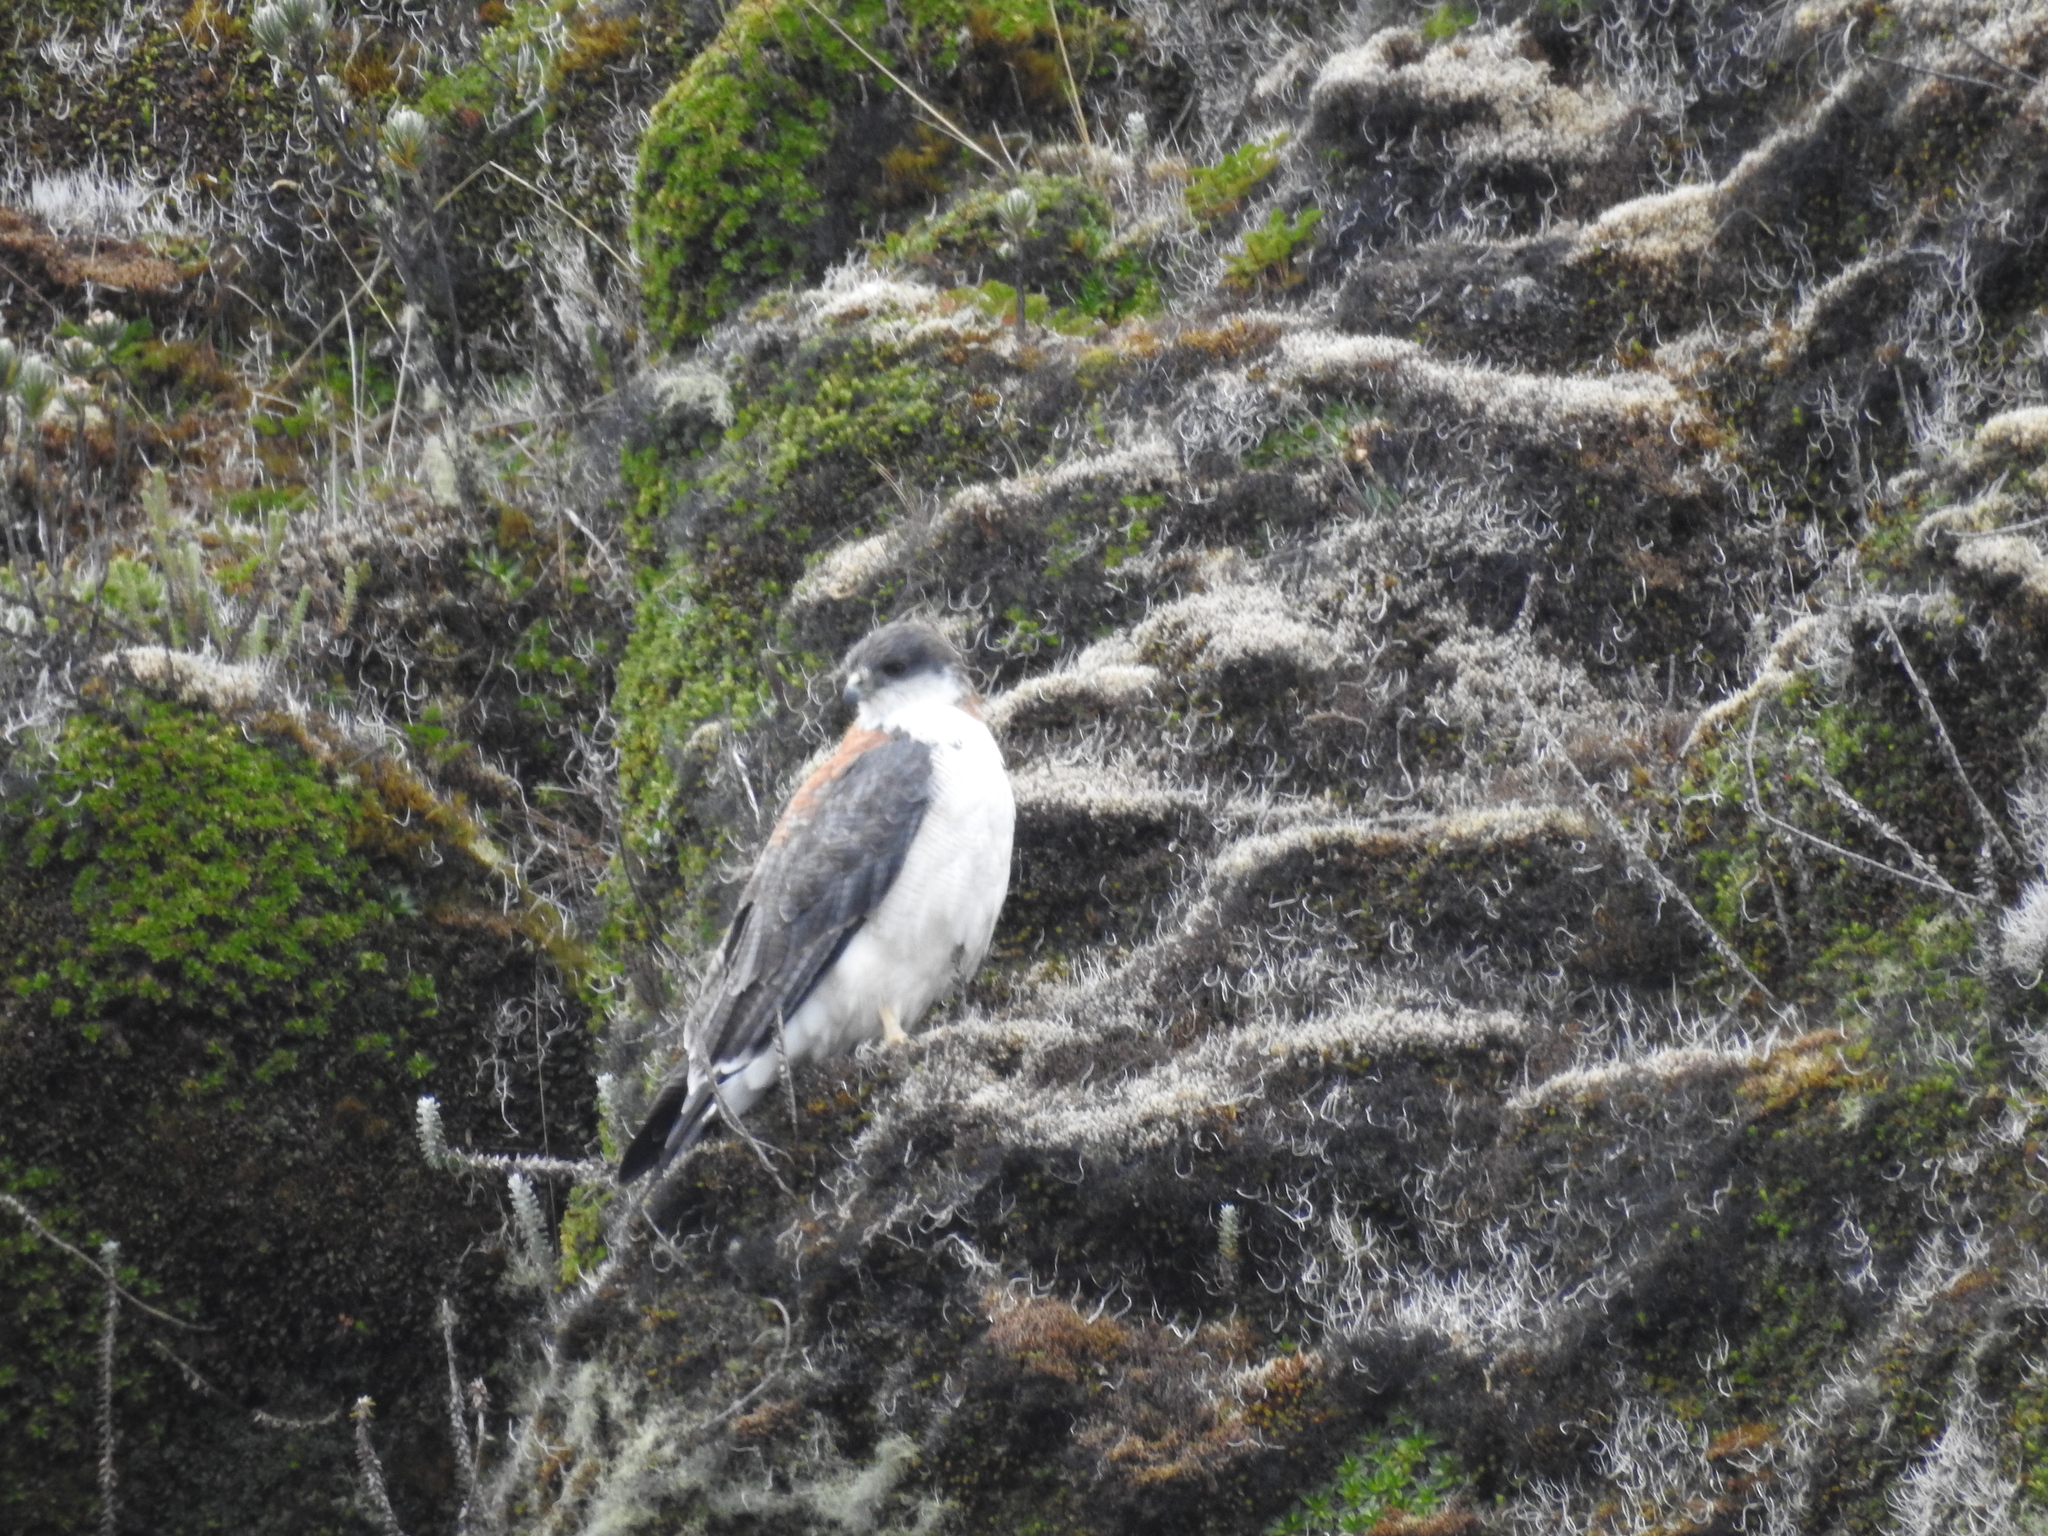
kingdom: Animalia
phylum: Chordata
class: Aves
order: Accipitriformes
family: Accipitridae
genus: Buteo
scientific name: Buteo polyosoma
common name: Variable hawk
